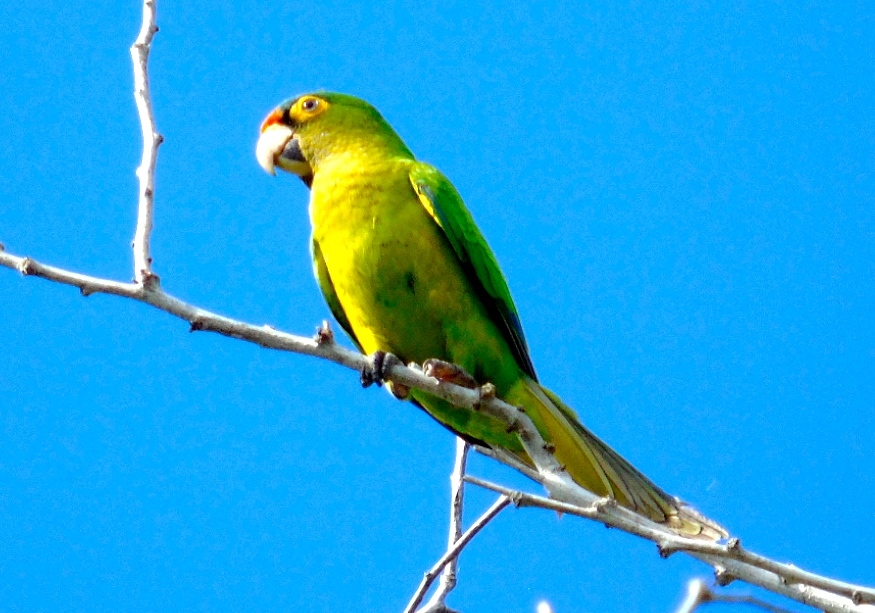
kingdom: Animalia
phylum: Chordata
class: Aves
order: Psittaciformes
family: Psittacidae
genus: Aratinga
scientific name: Aratinga canicularis
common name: Orange-fronted parakeet
